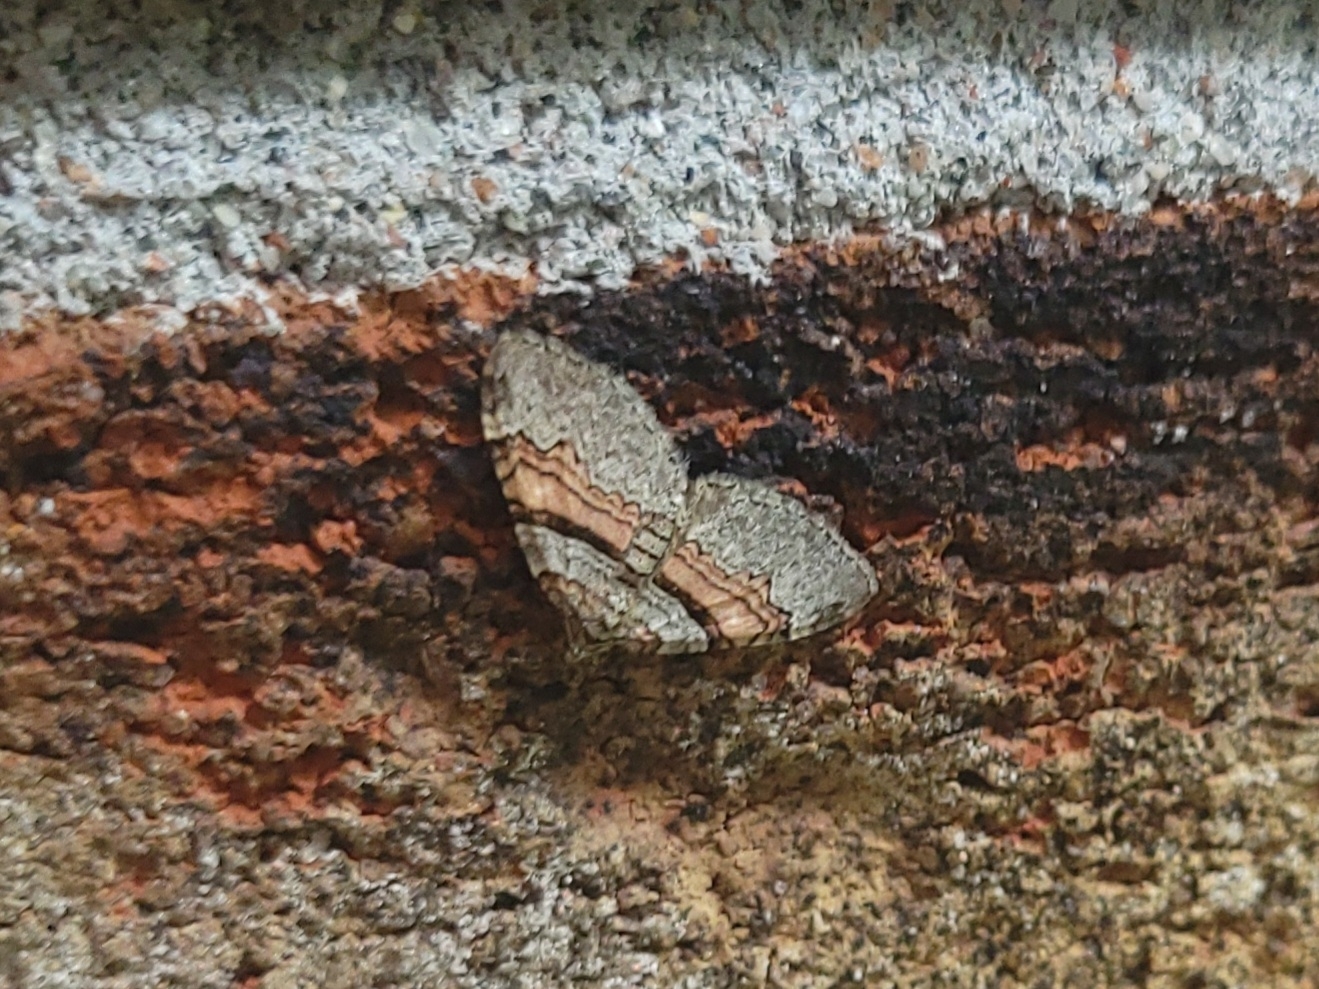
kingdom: Animalia
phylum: Arthropoda
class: Insecta
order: Lepidoptera
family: Geometridae
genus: Xanthorhoe
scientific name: Xanthorhoe labradorensis
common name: Labrador carpet
